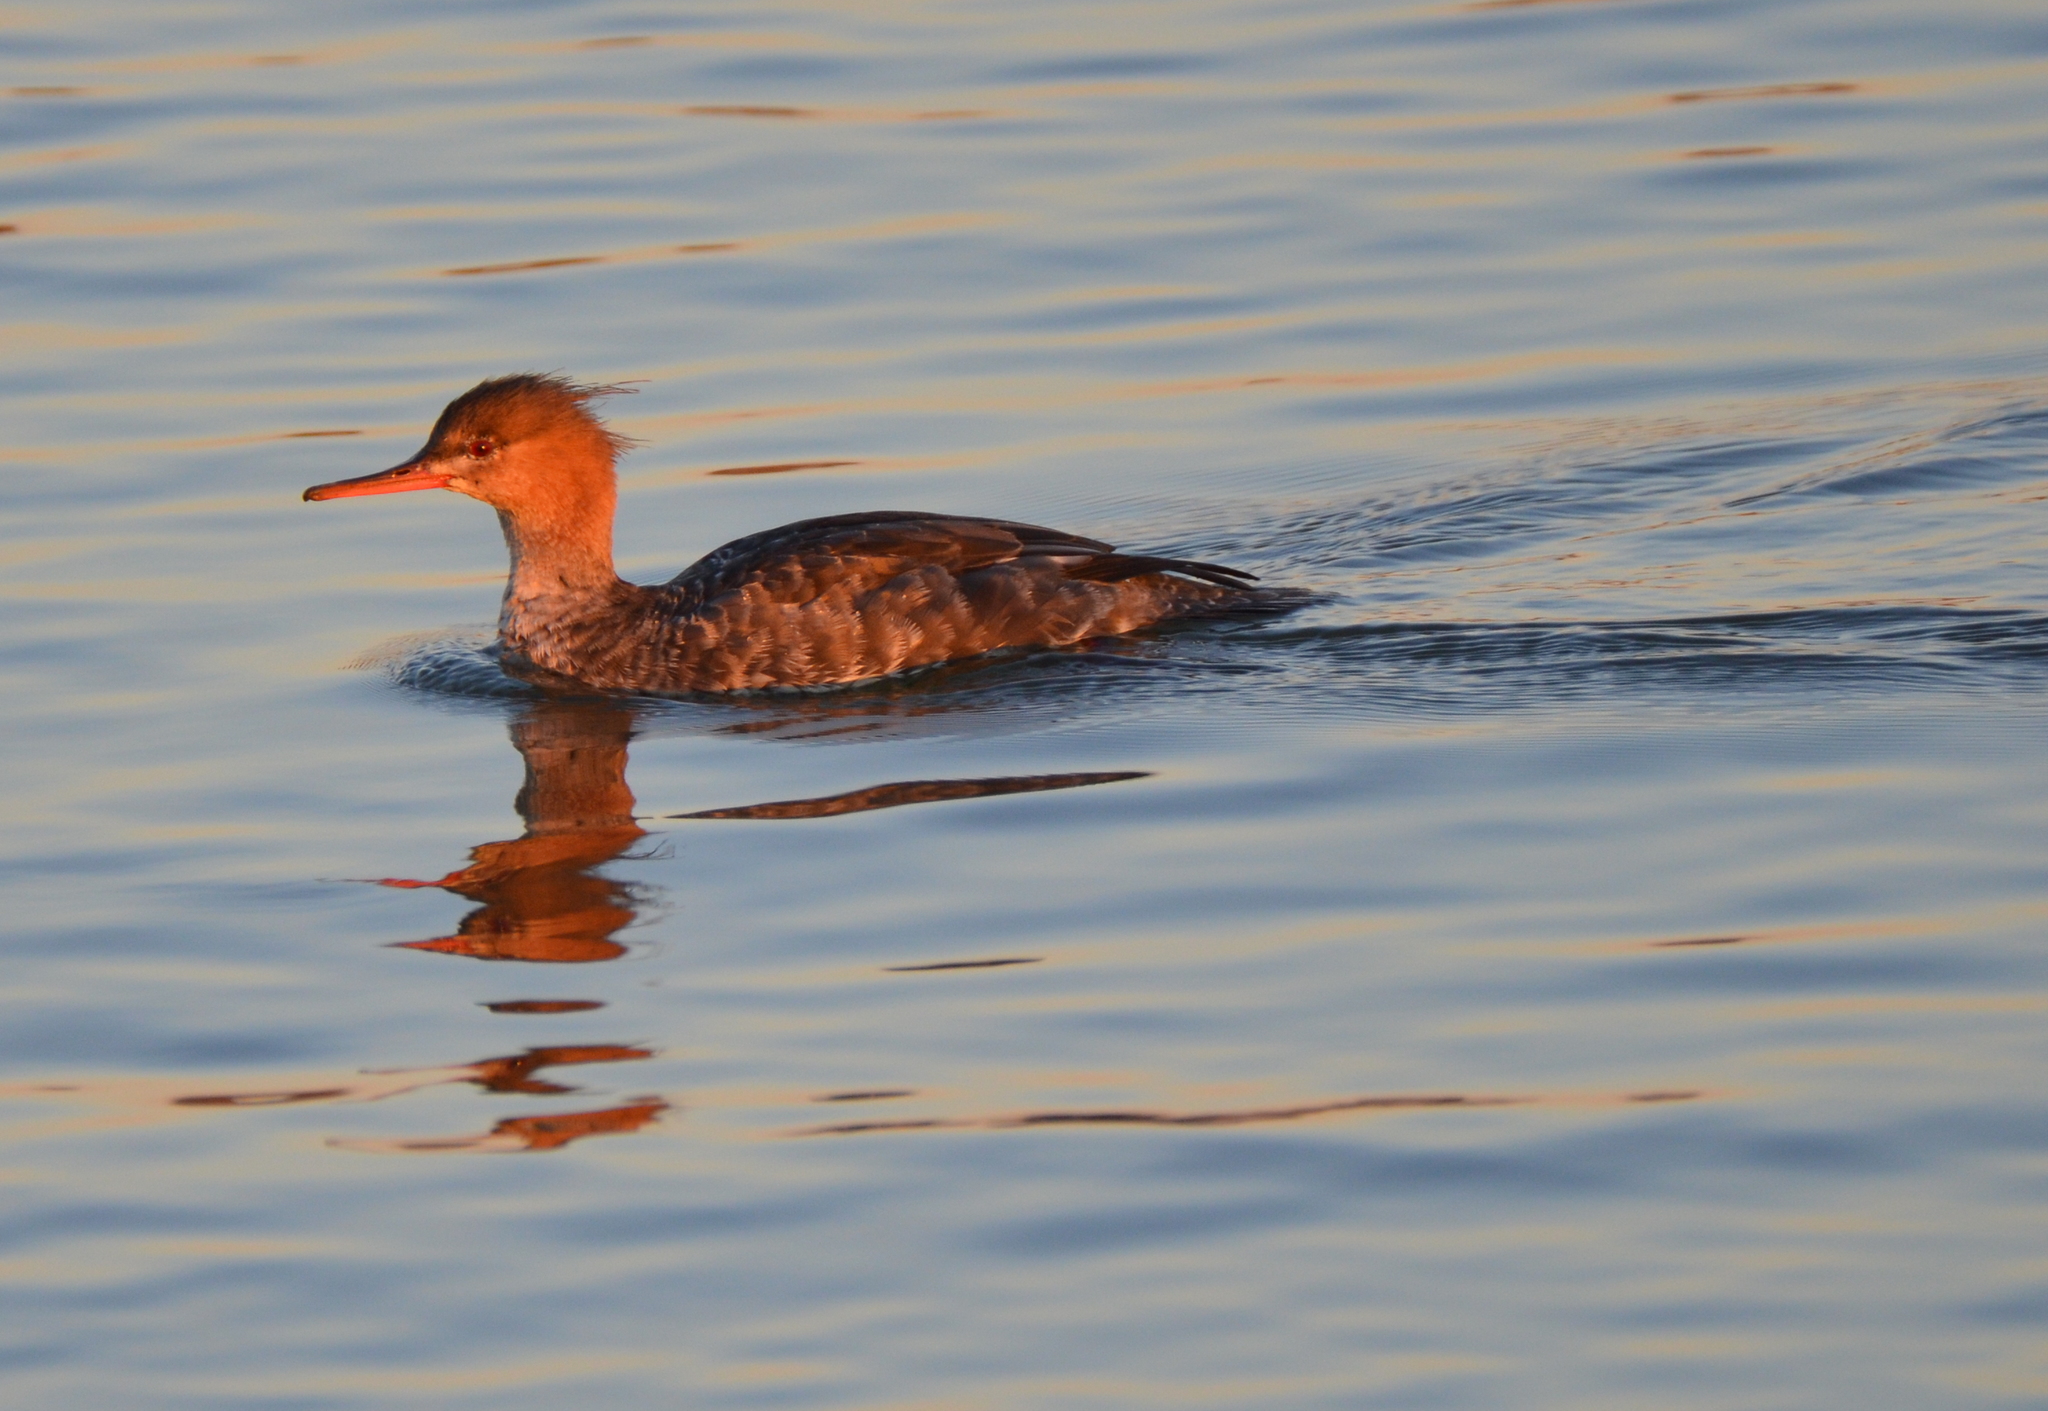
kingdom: Animalia
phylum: Chordata
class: Aves
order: Anseriformes
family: Anatidae
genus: Mergus
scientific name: Mergus serrator
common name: Red-breasted merganser
